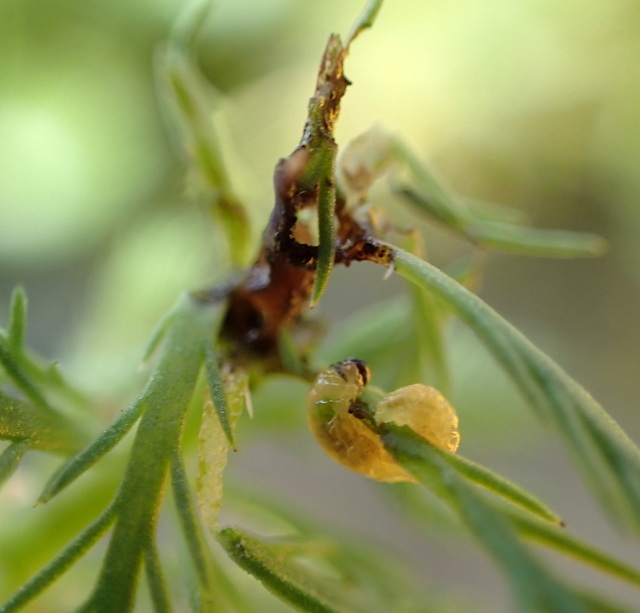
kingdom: Plantae
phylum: Tracheophyta
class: Magnoliopsida
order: Saxifragales
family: Haloragaceae
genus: Myriophyllum
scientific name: Myriophyllum aquaticum
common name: Parrot's feather
